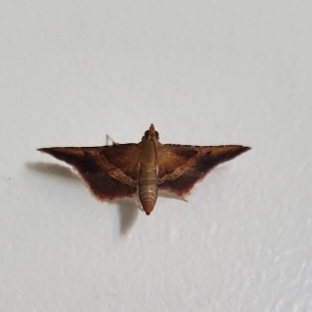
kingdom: Animalia
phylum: Arthropoda
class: Insecta
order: Lepidoptera
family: Pyralidae
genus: Endotricha
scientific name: Endotricha flammealis
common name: Rosy tabby
